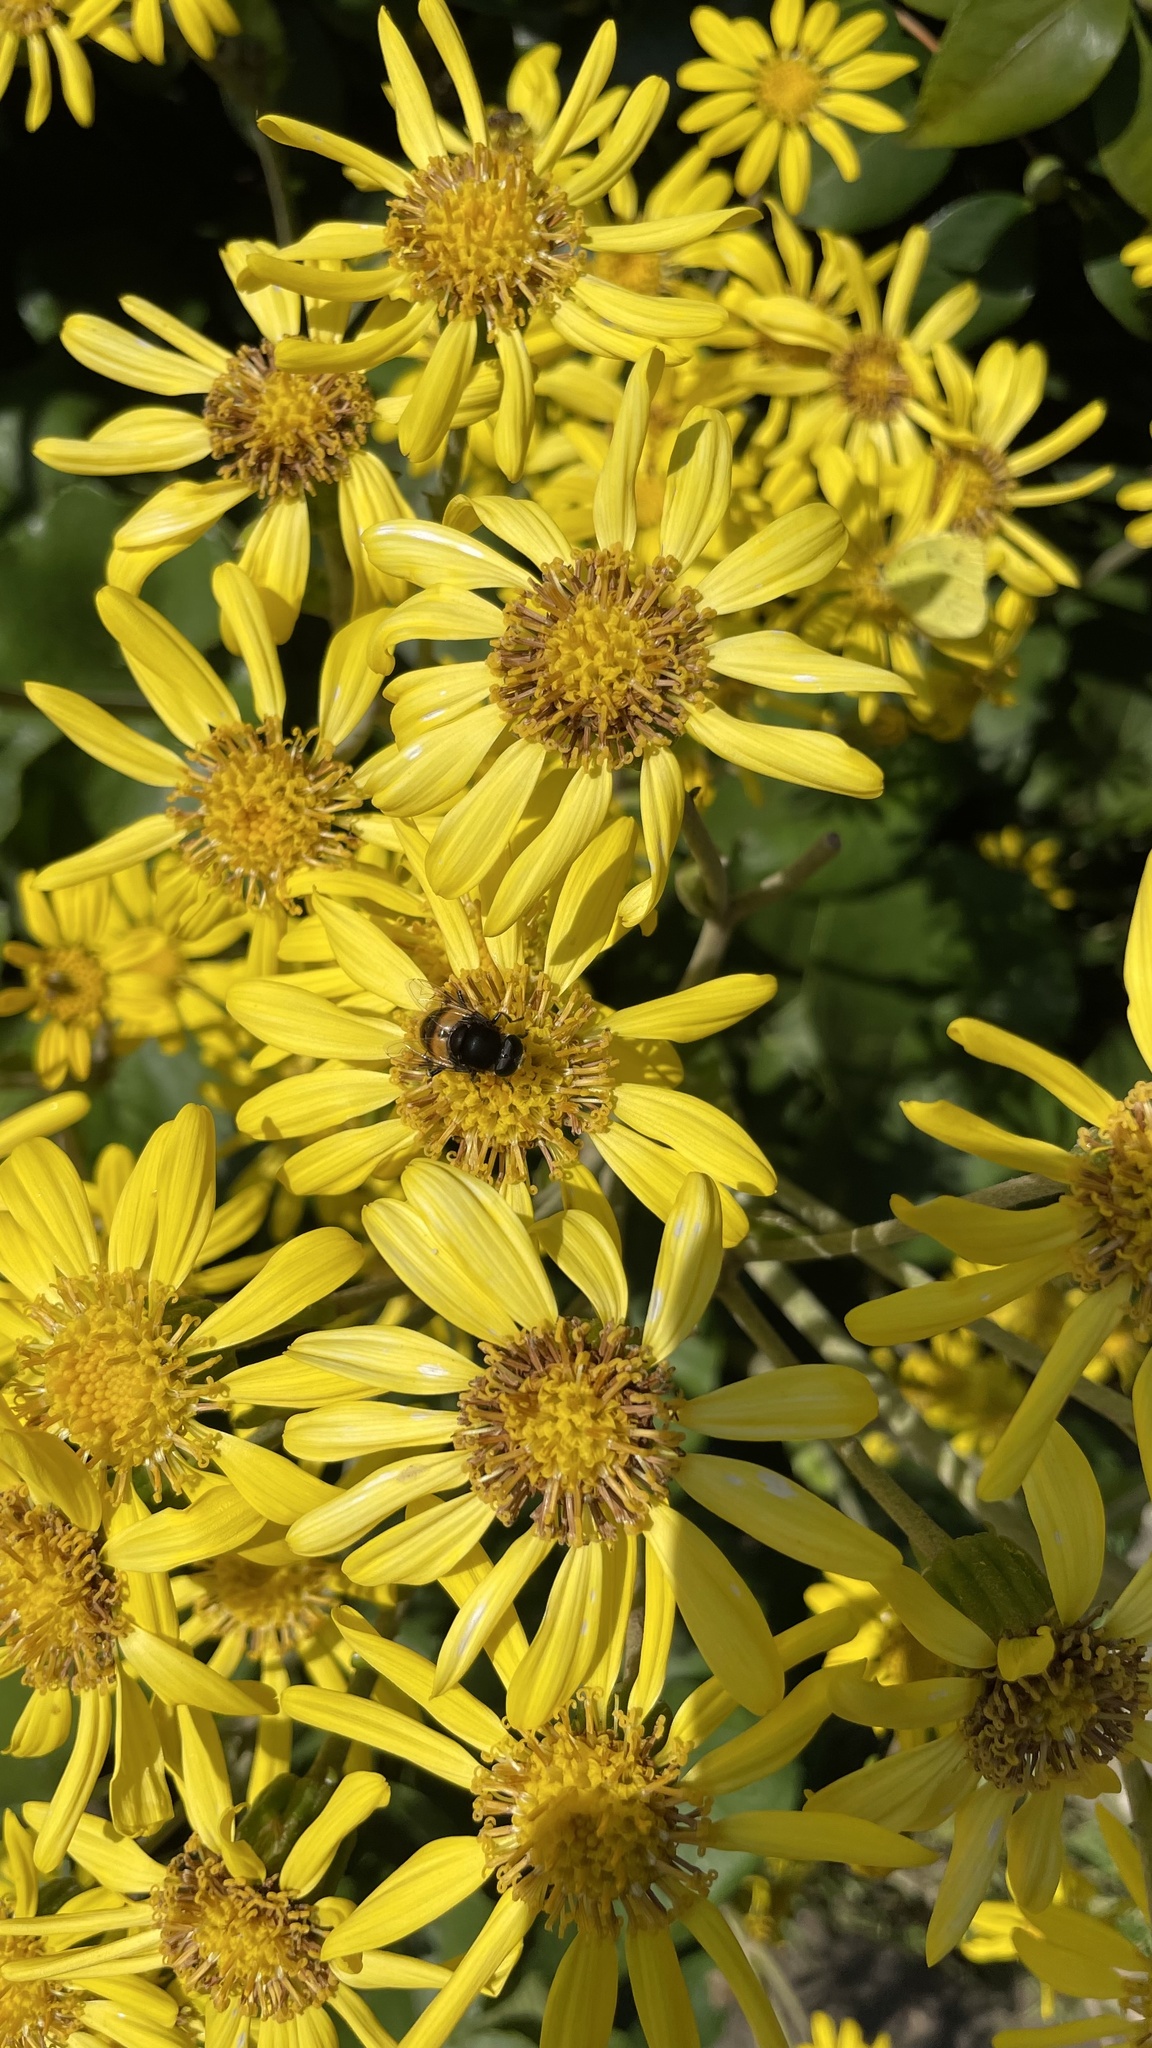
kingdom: Plantae
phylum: Tracheophyta
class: Magnoliopsida
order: Asterales
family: Asteraceae
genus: Farfugium
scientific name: Farfugium japonicum
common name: Leopardplant
